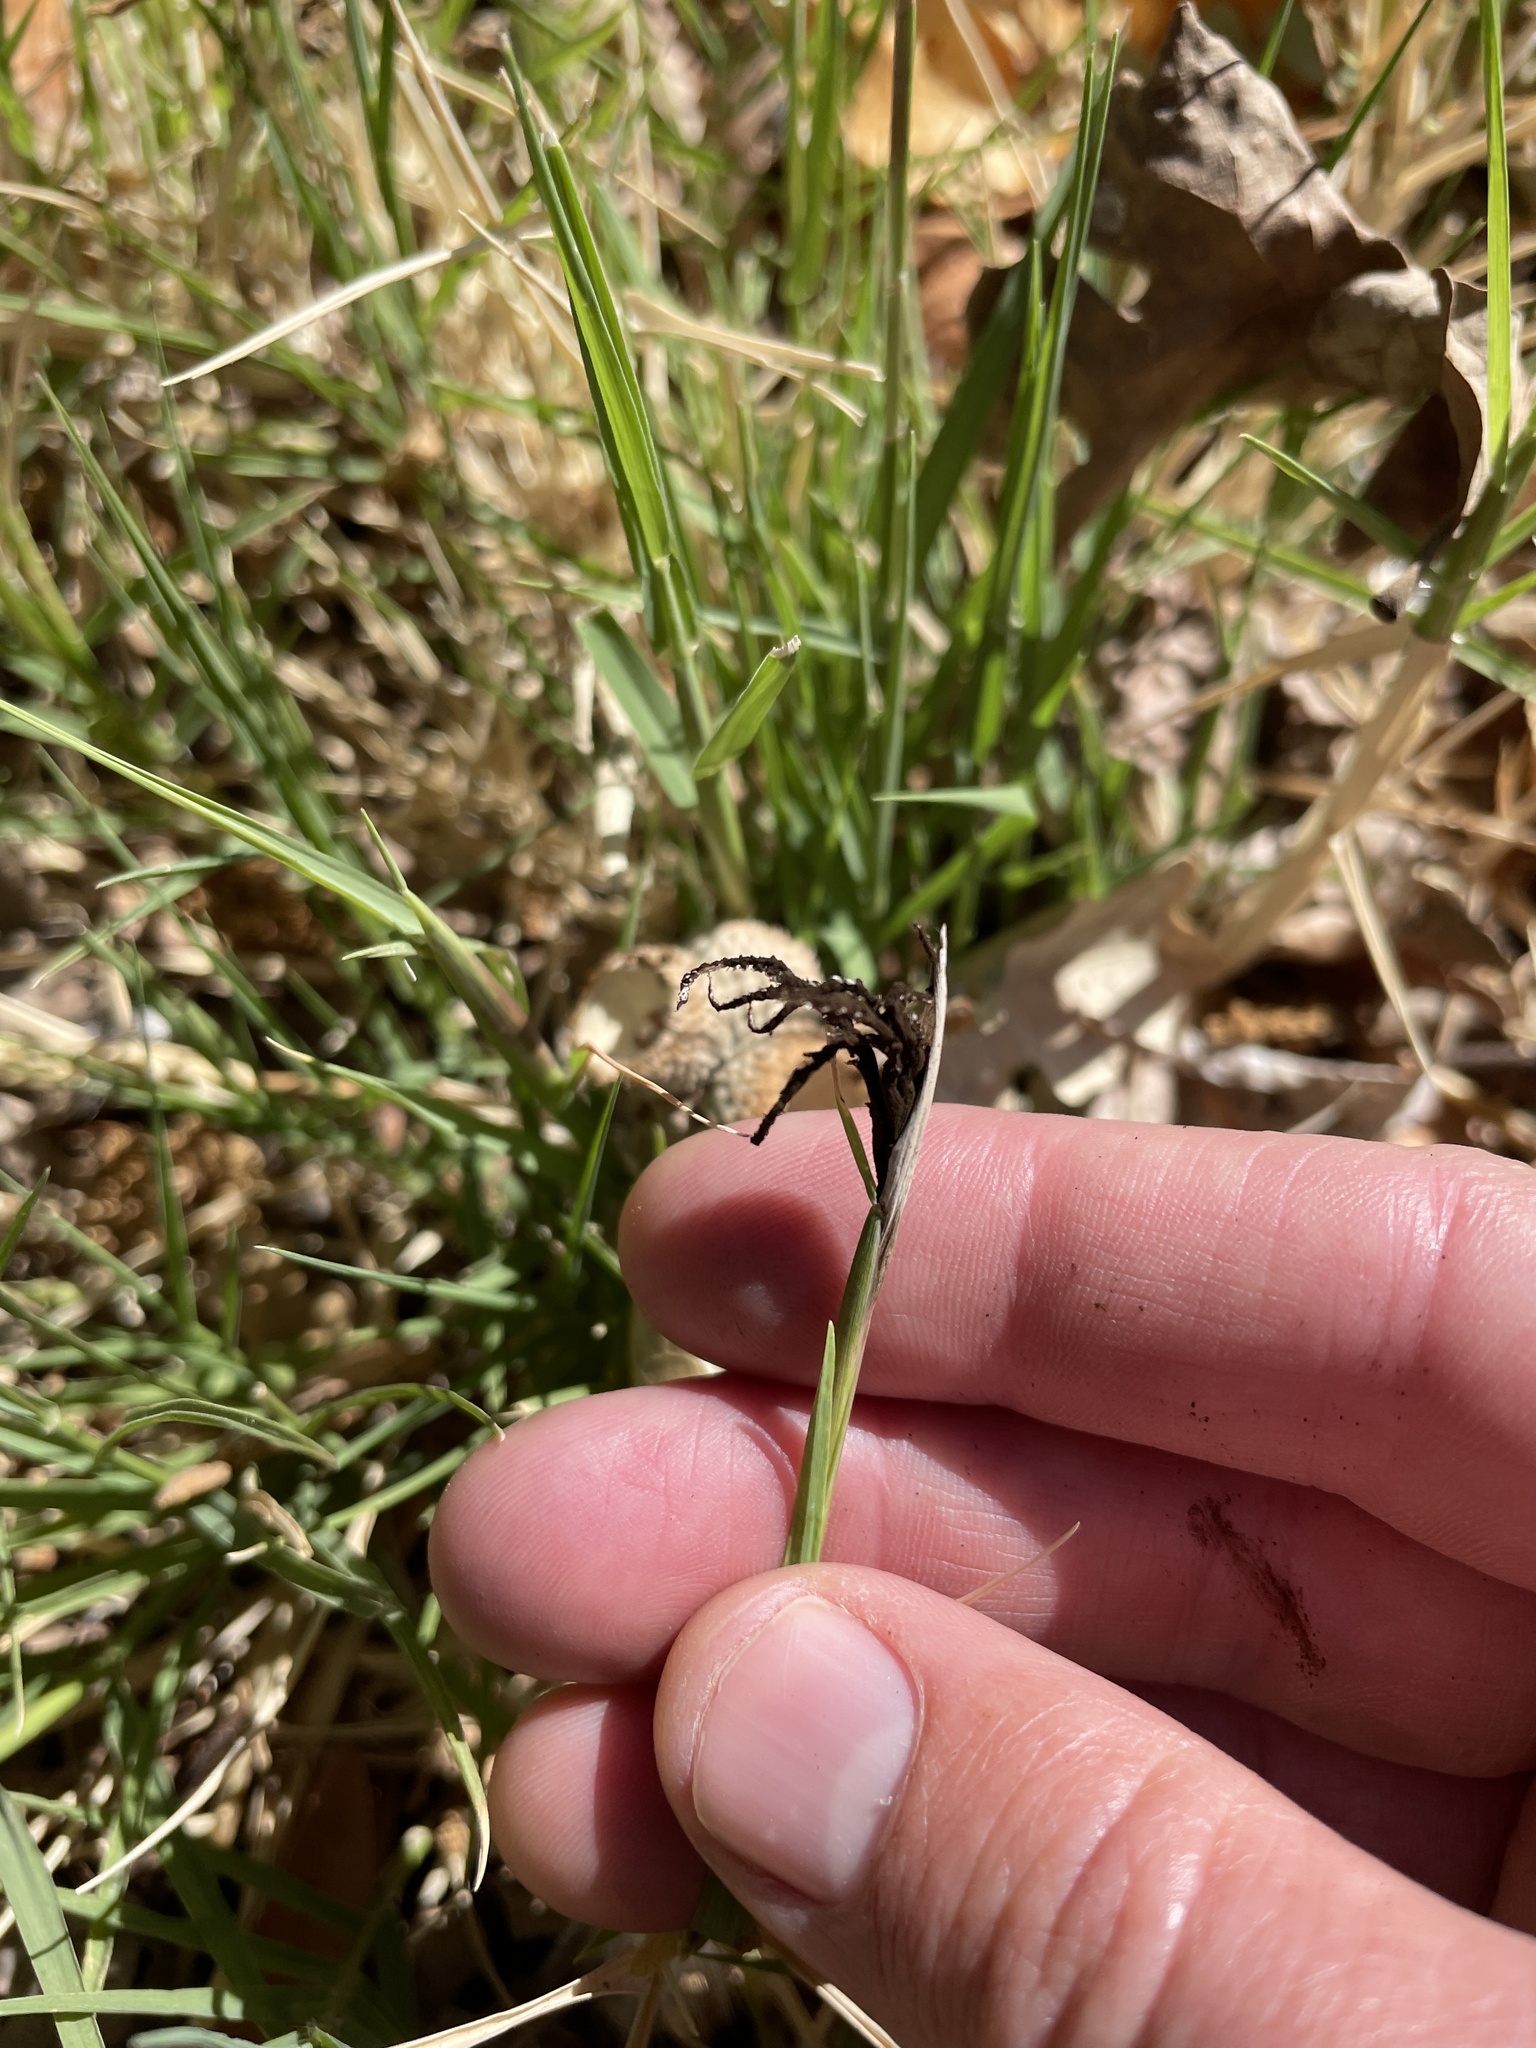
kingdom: Fungi
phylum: Basidiomycota
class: Ustilaginomycetes
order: Ustilaginales
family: Ustilaginaceae
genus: Ustilago
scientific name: Ustilago cynodontis
